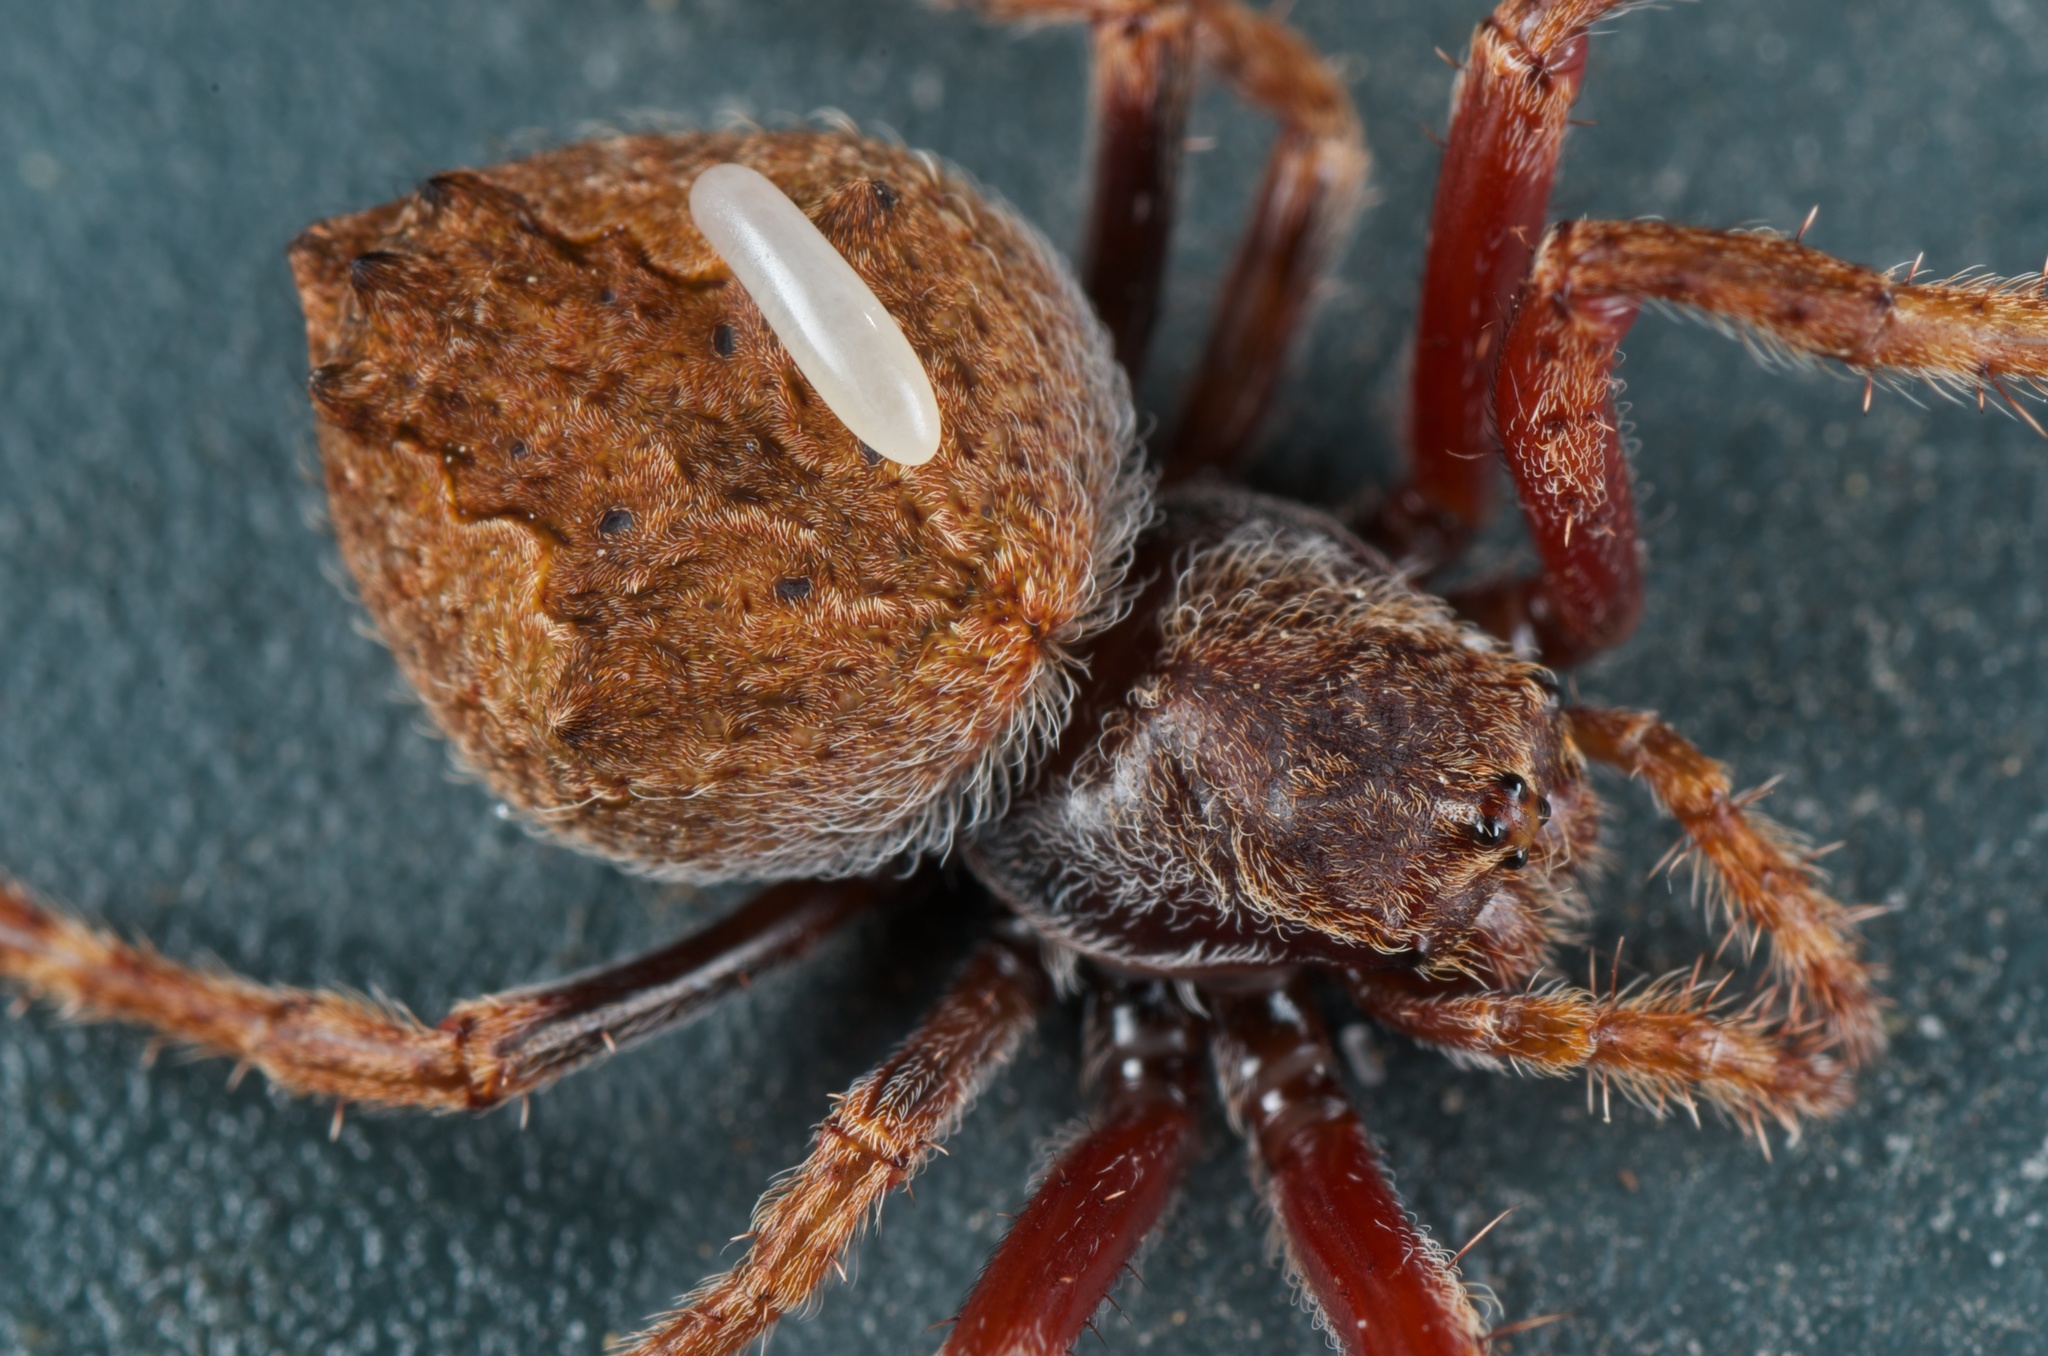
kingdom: Animalia
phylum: Arthropoda
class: Arachnida
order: Araneae
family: Araneidae
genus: Eriophora
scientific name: Eriophora pustulosa
